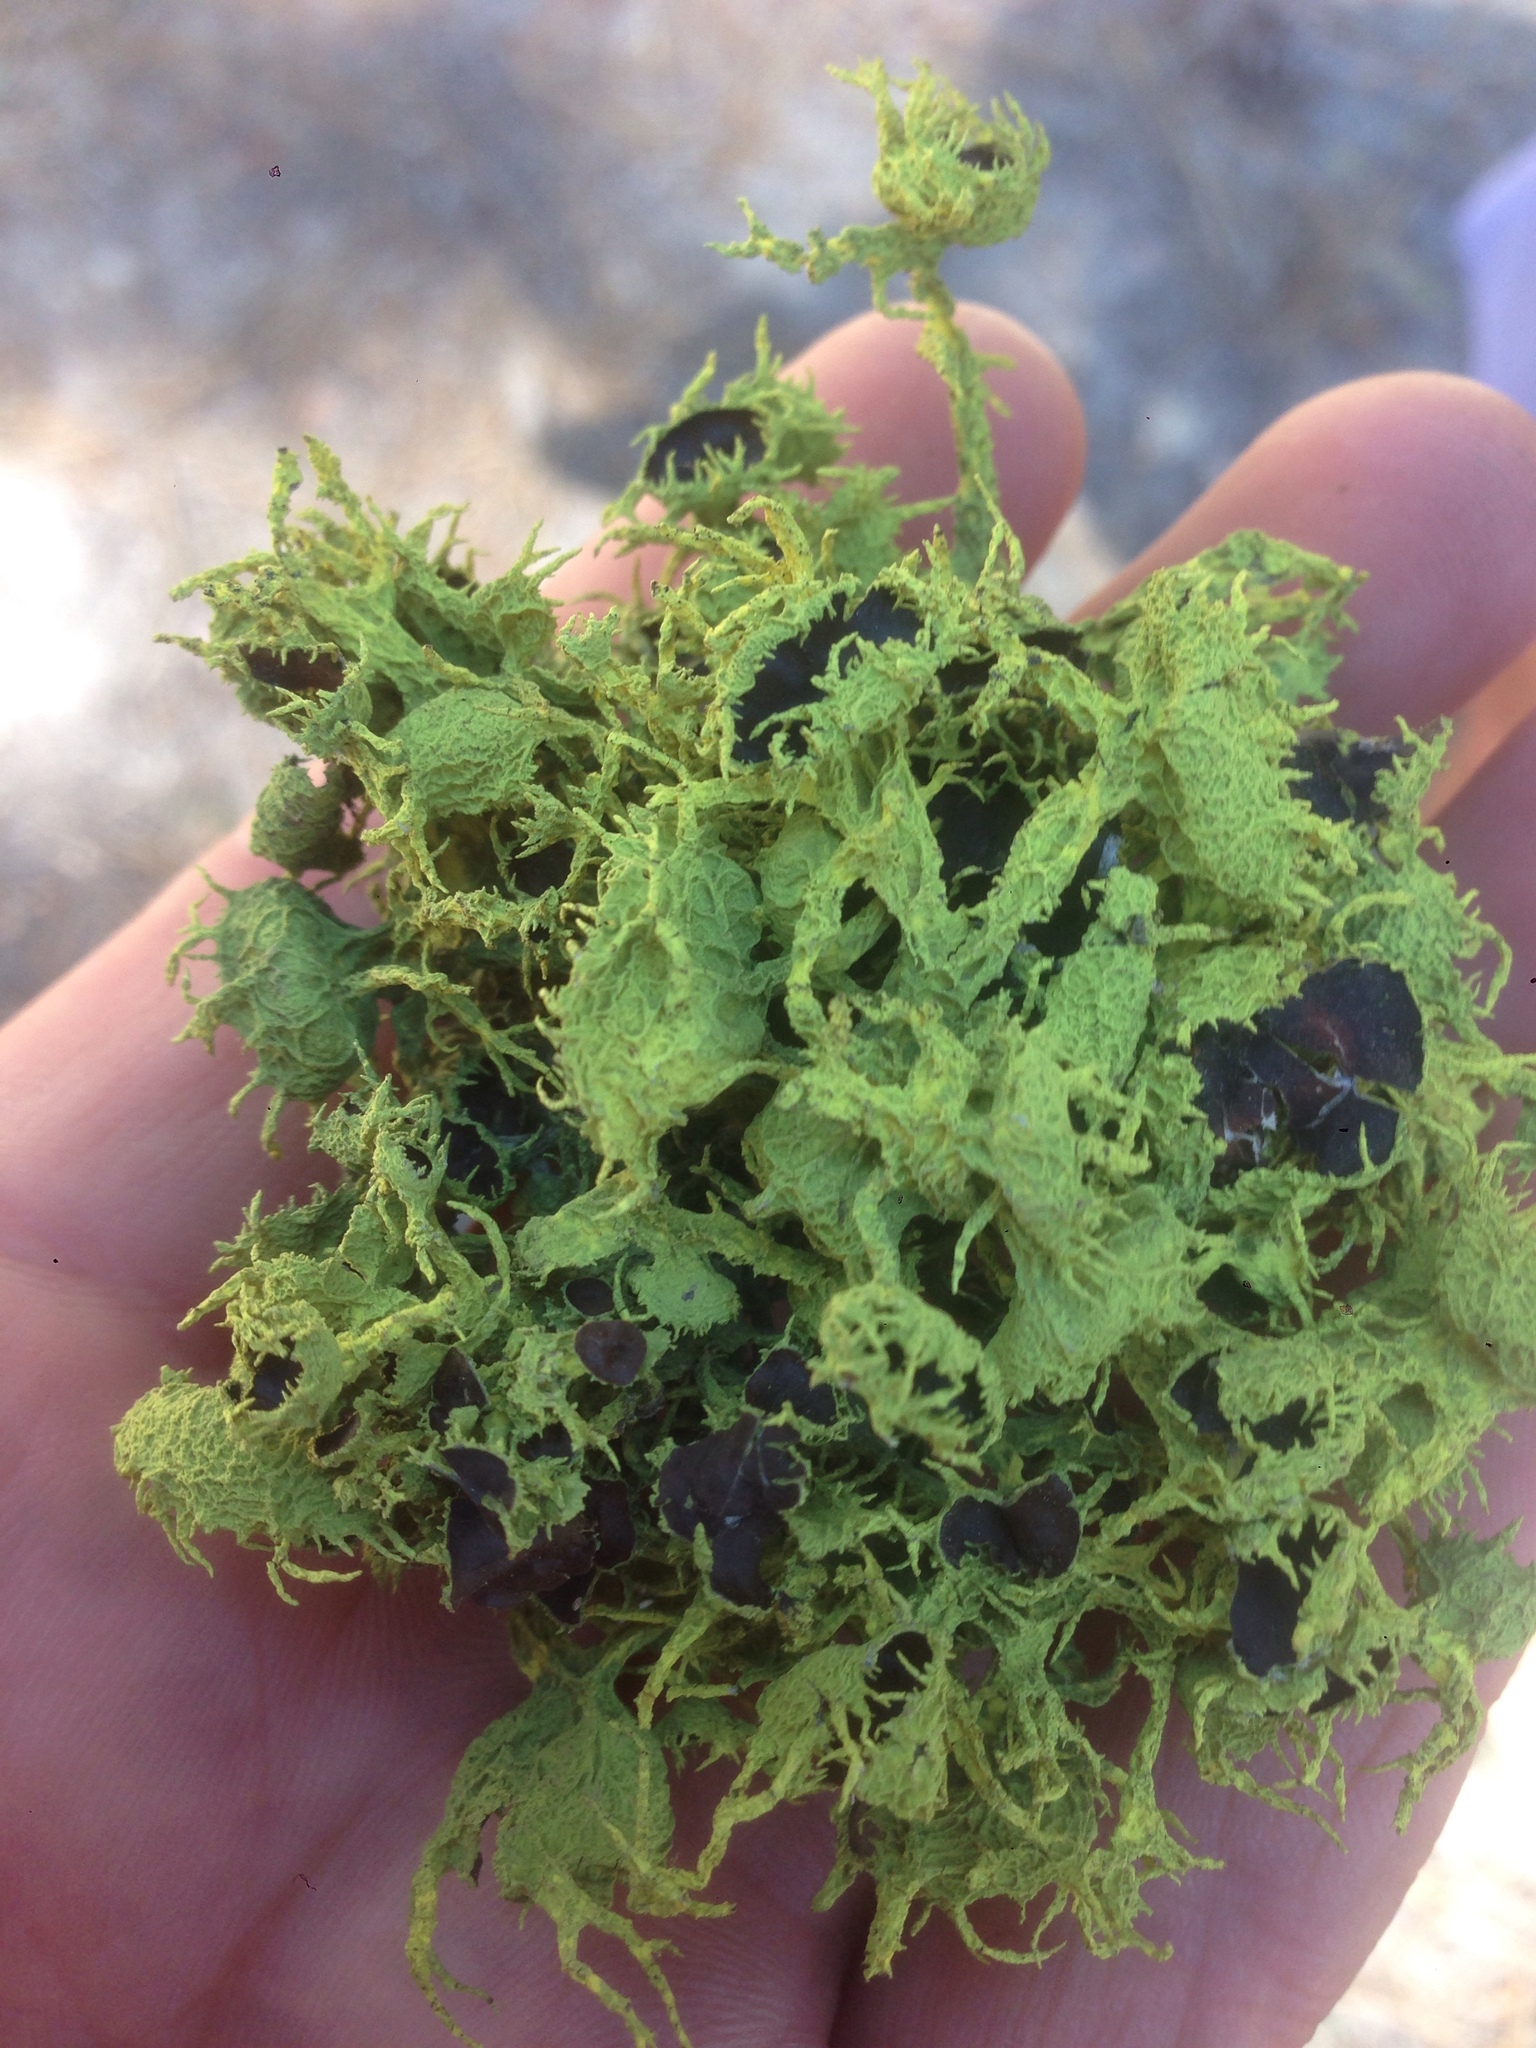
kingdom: Fungi
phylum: Ascomycota
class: Lecanoromycetes
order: Lecanorales
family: Parmeliaceae
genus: Letharia
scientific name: Letharia columbiana
